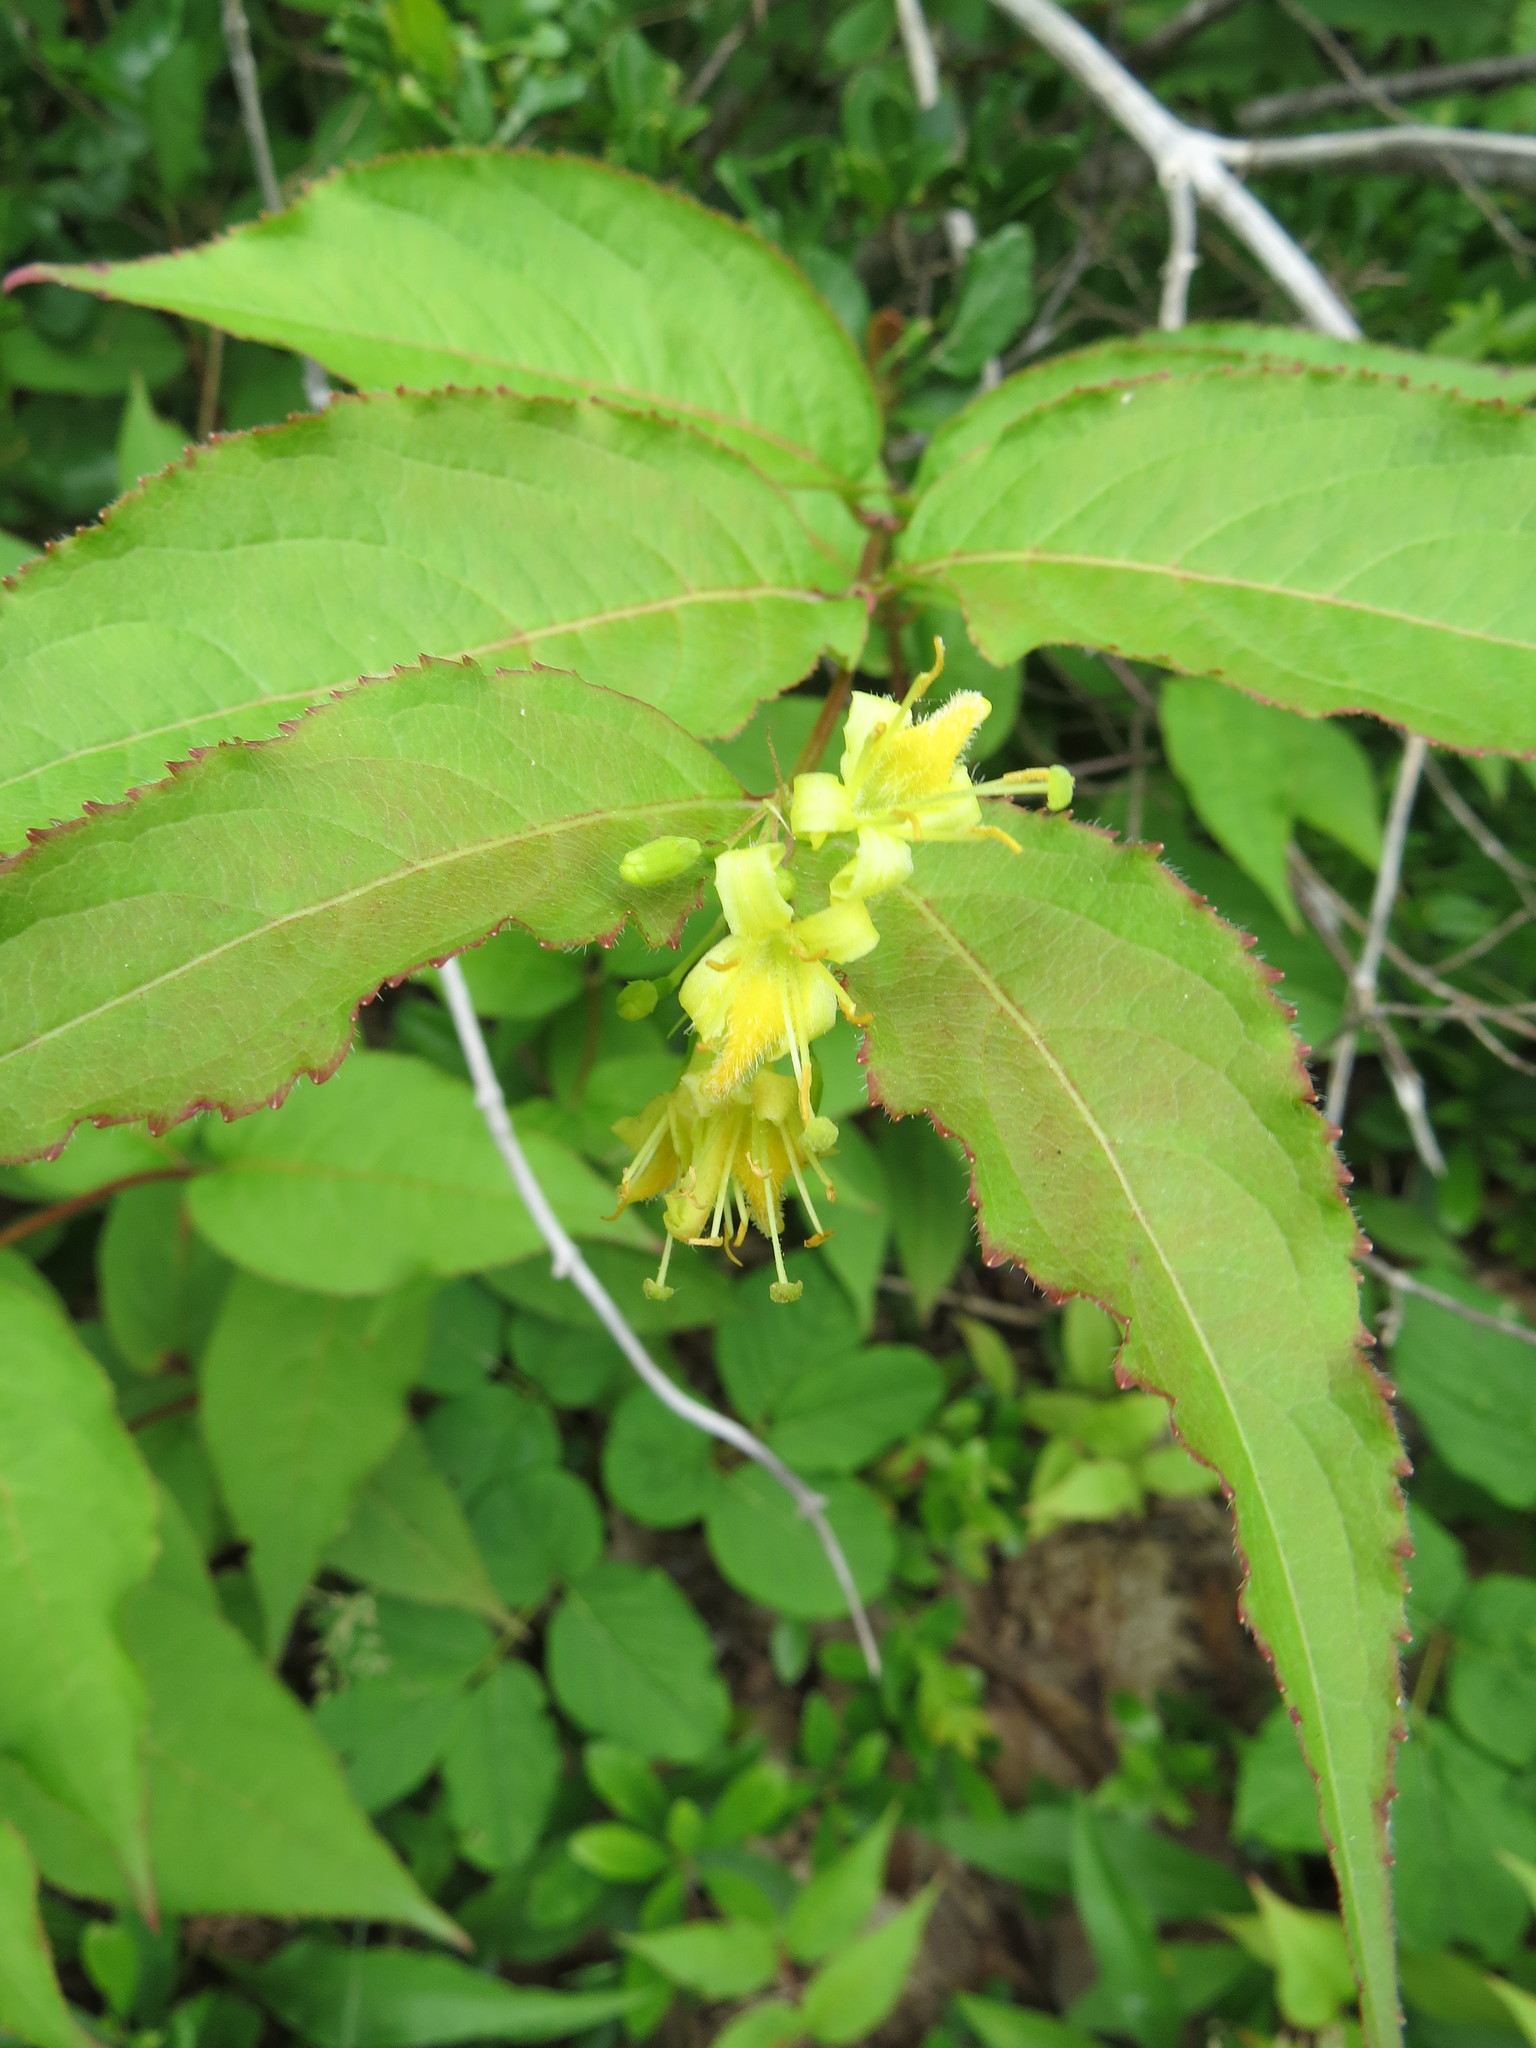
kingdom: Plantae
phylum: Tracheophyta
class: Magnoliopsida
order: Dipsacales
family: Caprifoliaceae
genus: Diervilla
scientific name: Diervilla lonicera
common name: Bush-honeysuckle
